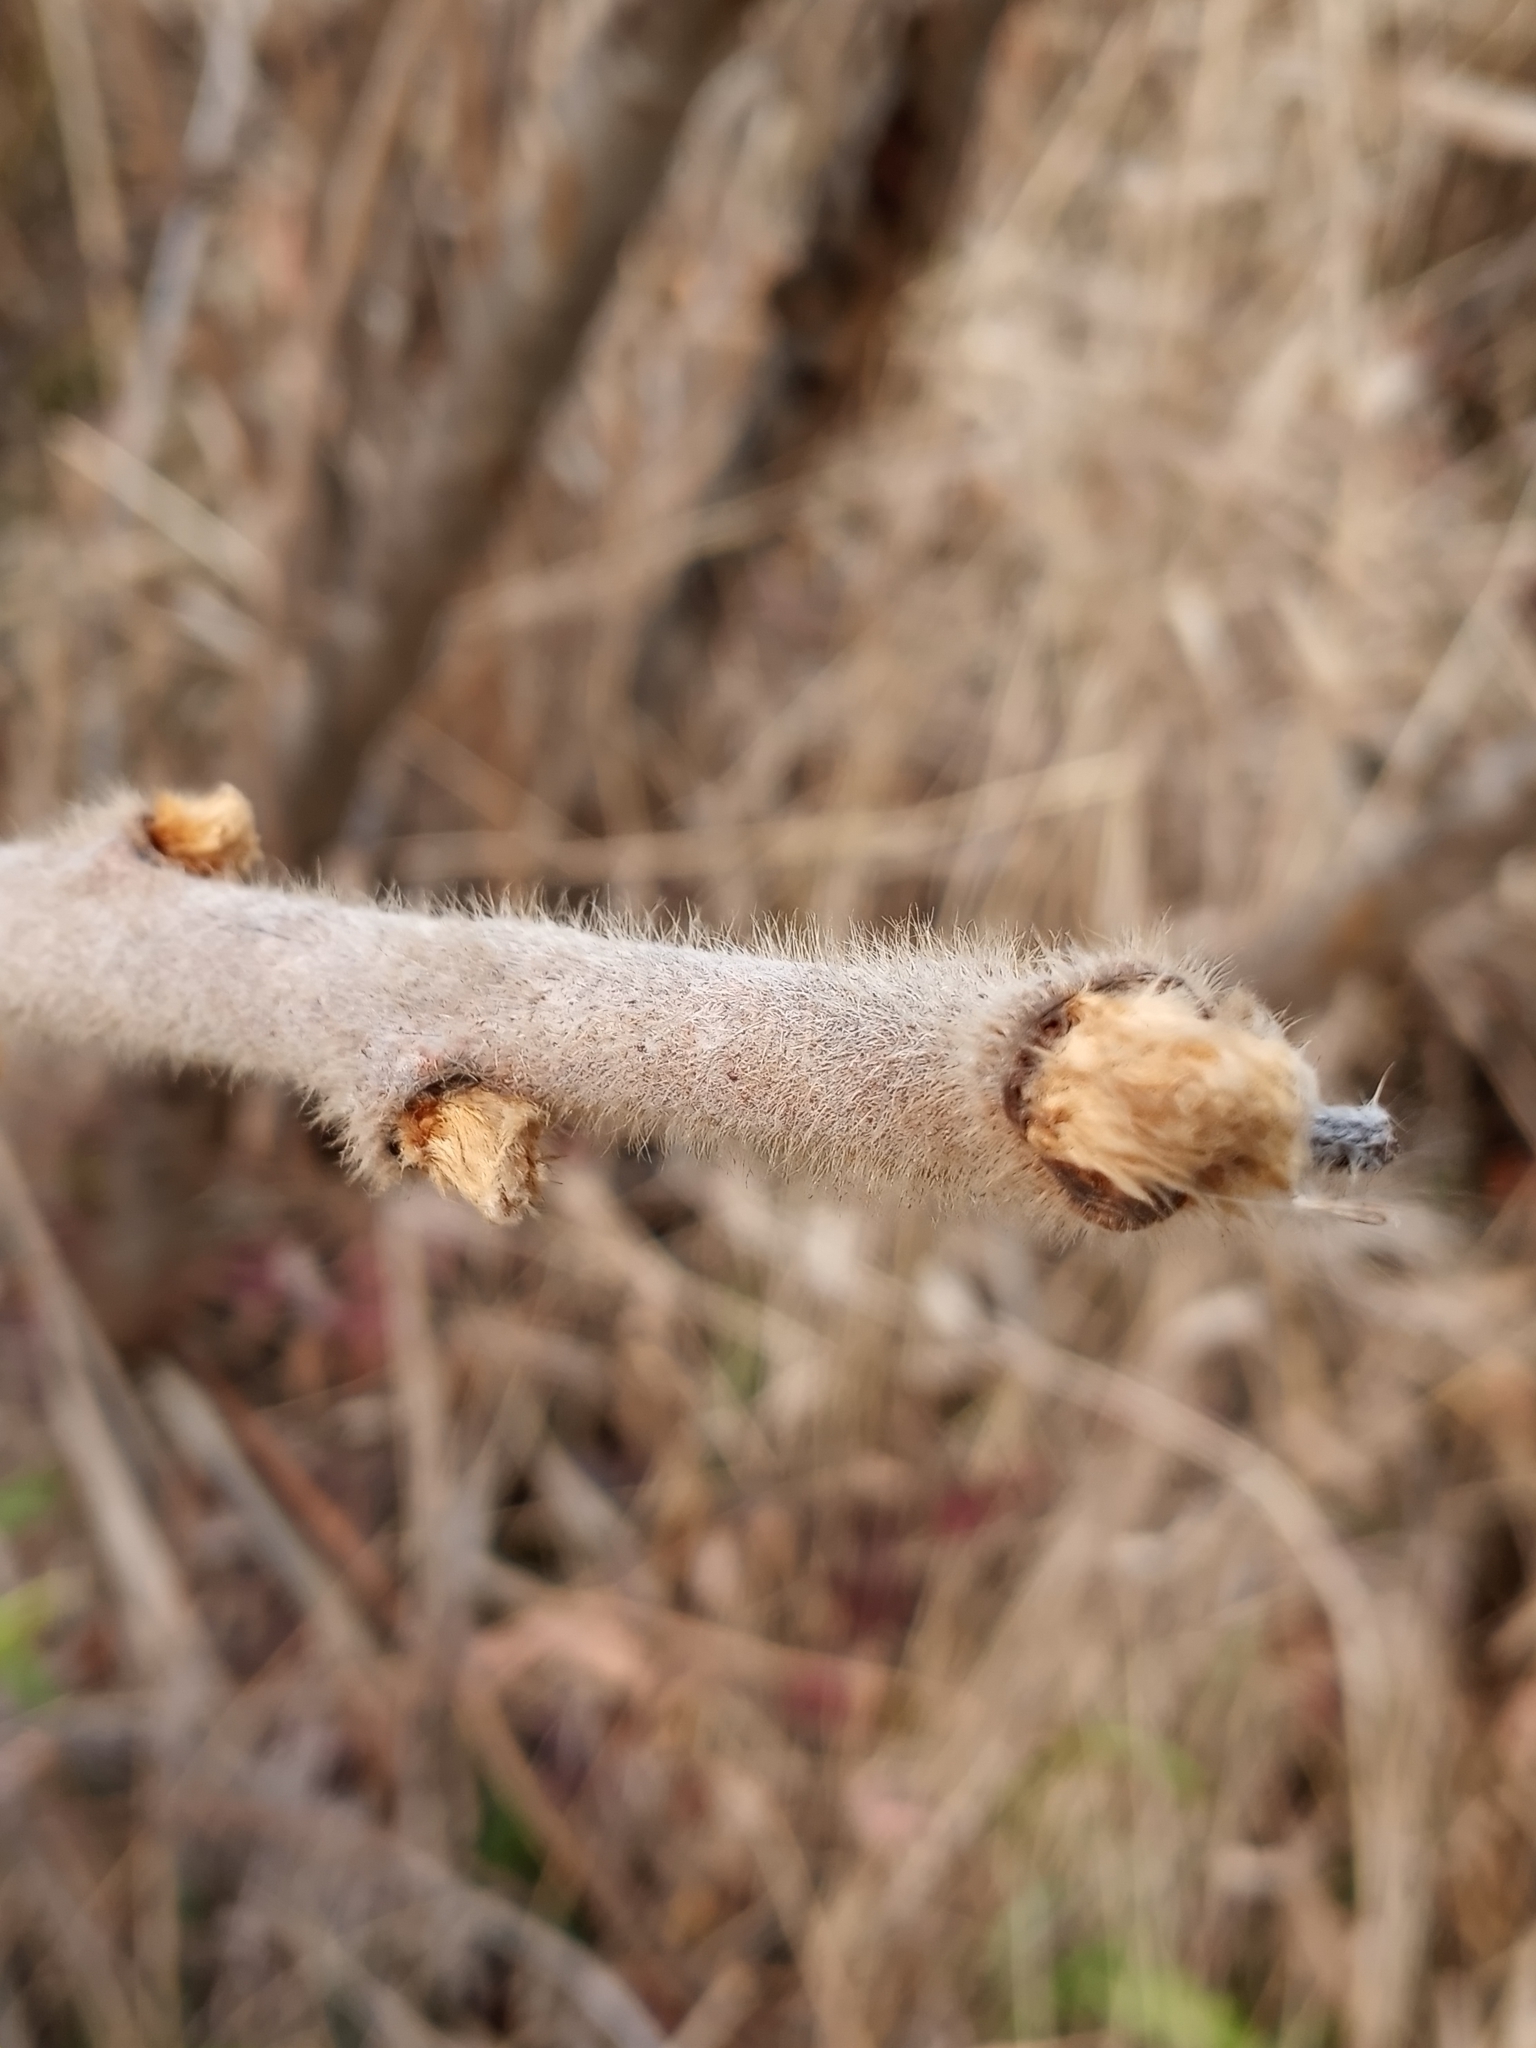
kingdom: Plantae
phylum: Tracheophyta
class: Magnoliopsida
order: Sapindales
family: Anacardiaceae
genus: Rhus
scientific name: Rhus typhina
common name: Staghorn sumac
